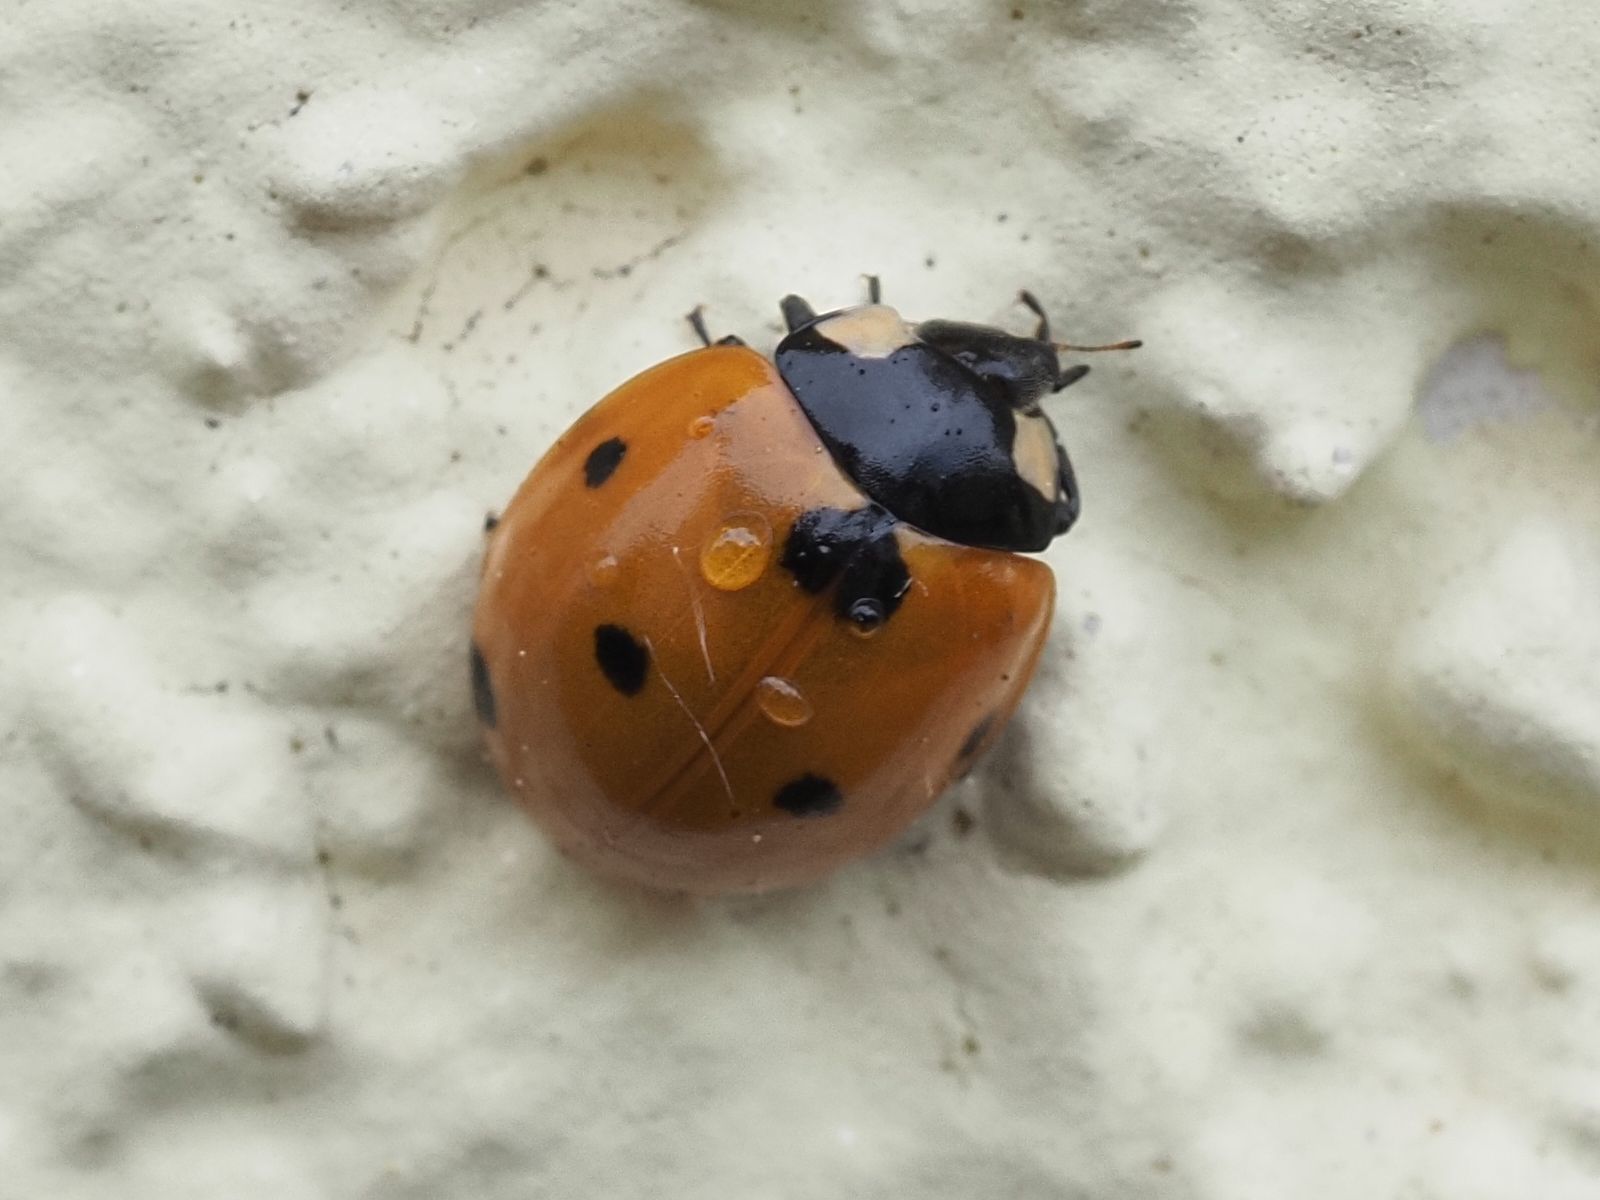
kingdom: Animalia
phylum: Arthropoda
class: Insecta
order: Coleoptera
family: Coccinellidae
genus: Coccinella
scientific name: Coccinella septempunctata
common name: Sevenspotted lady beetle
